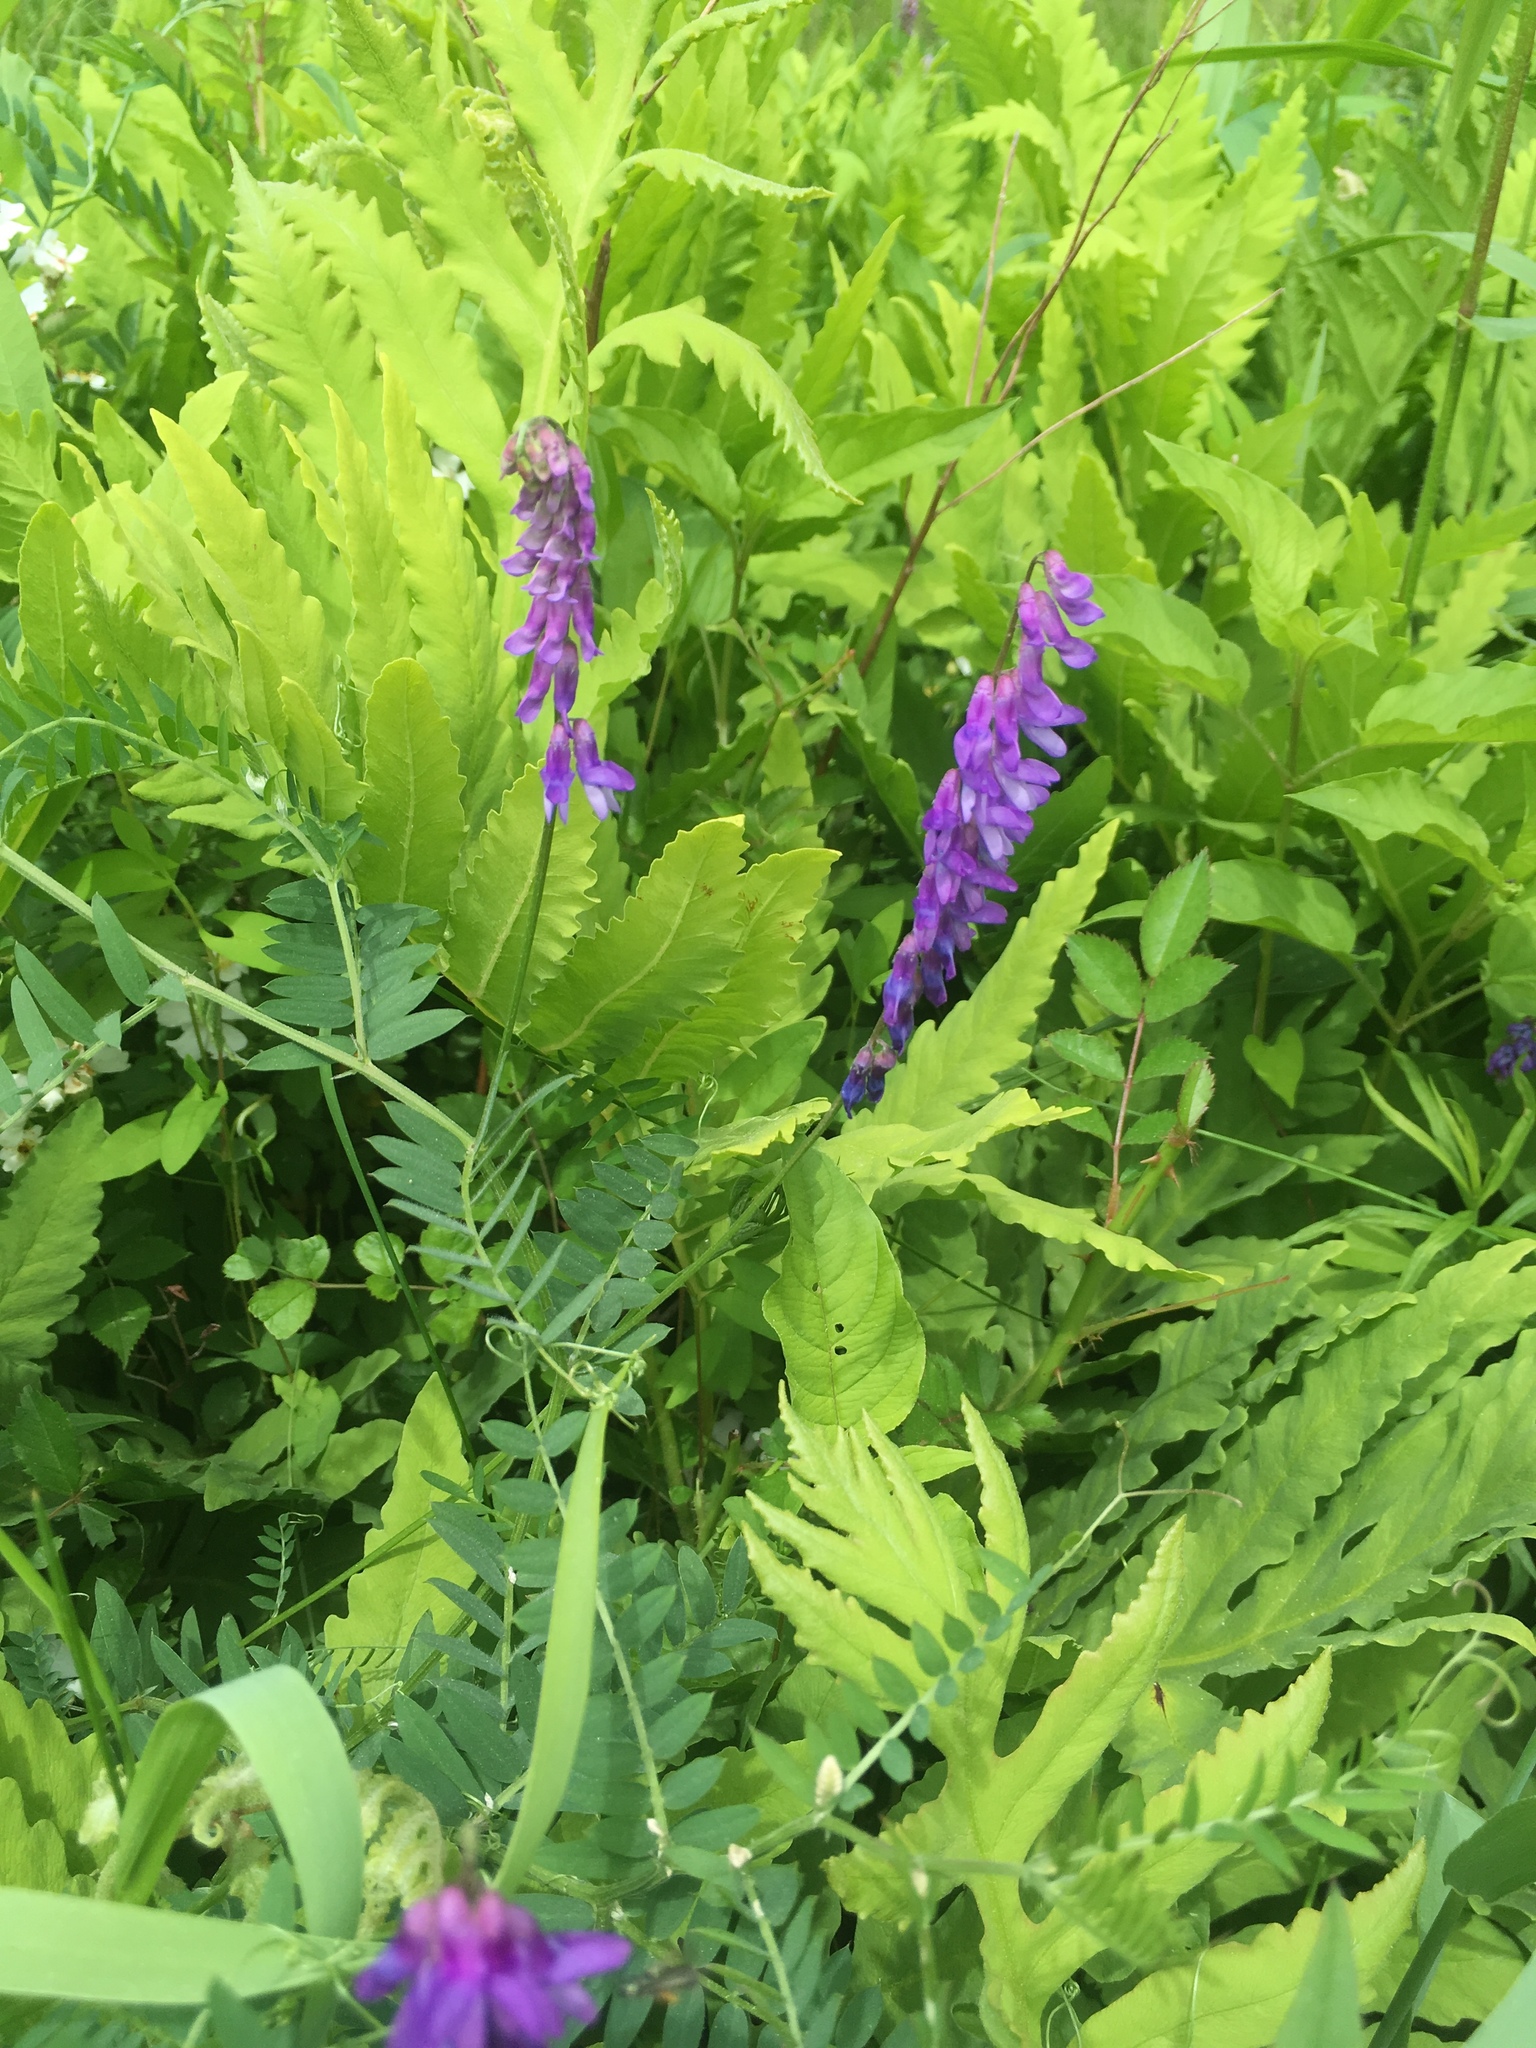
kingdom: Plantae
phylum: Tracheophyta
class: Magnoliopsida
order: Fabales
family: Fabaceae
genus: Vicia
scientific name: Vicia cracca
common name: Bird vetch
